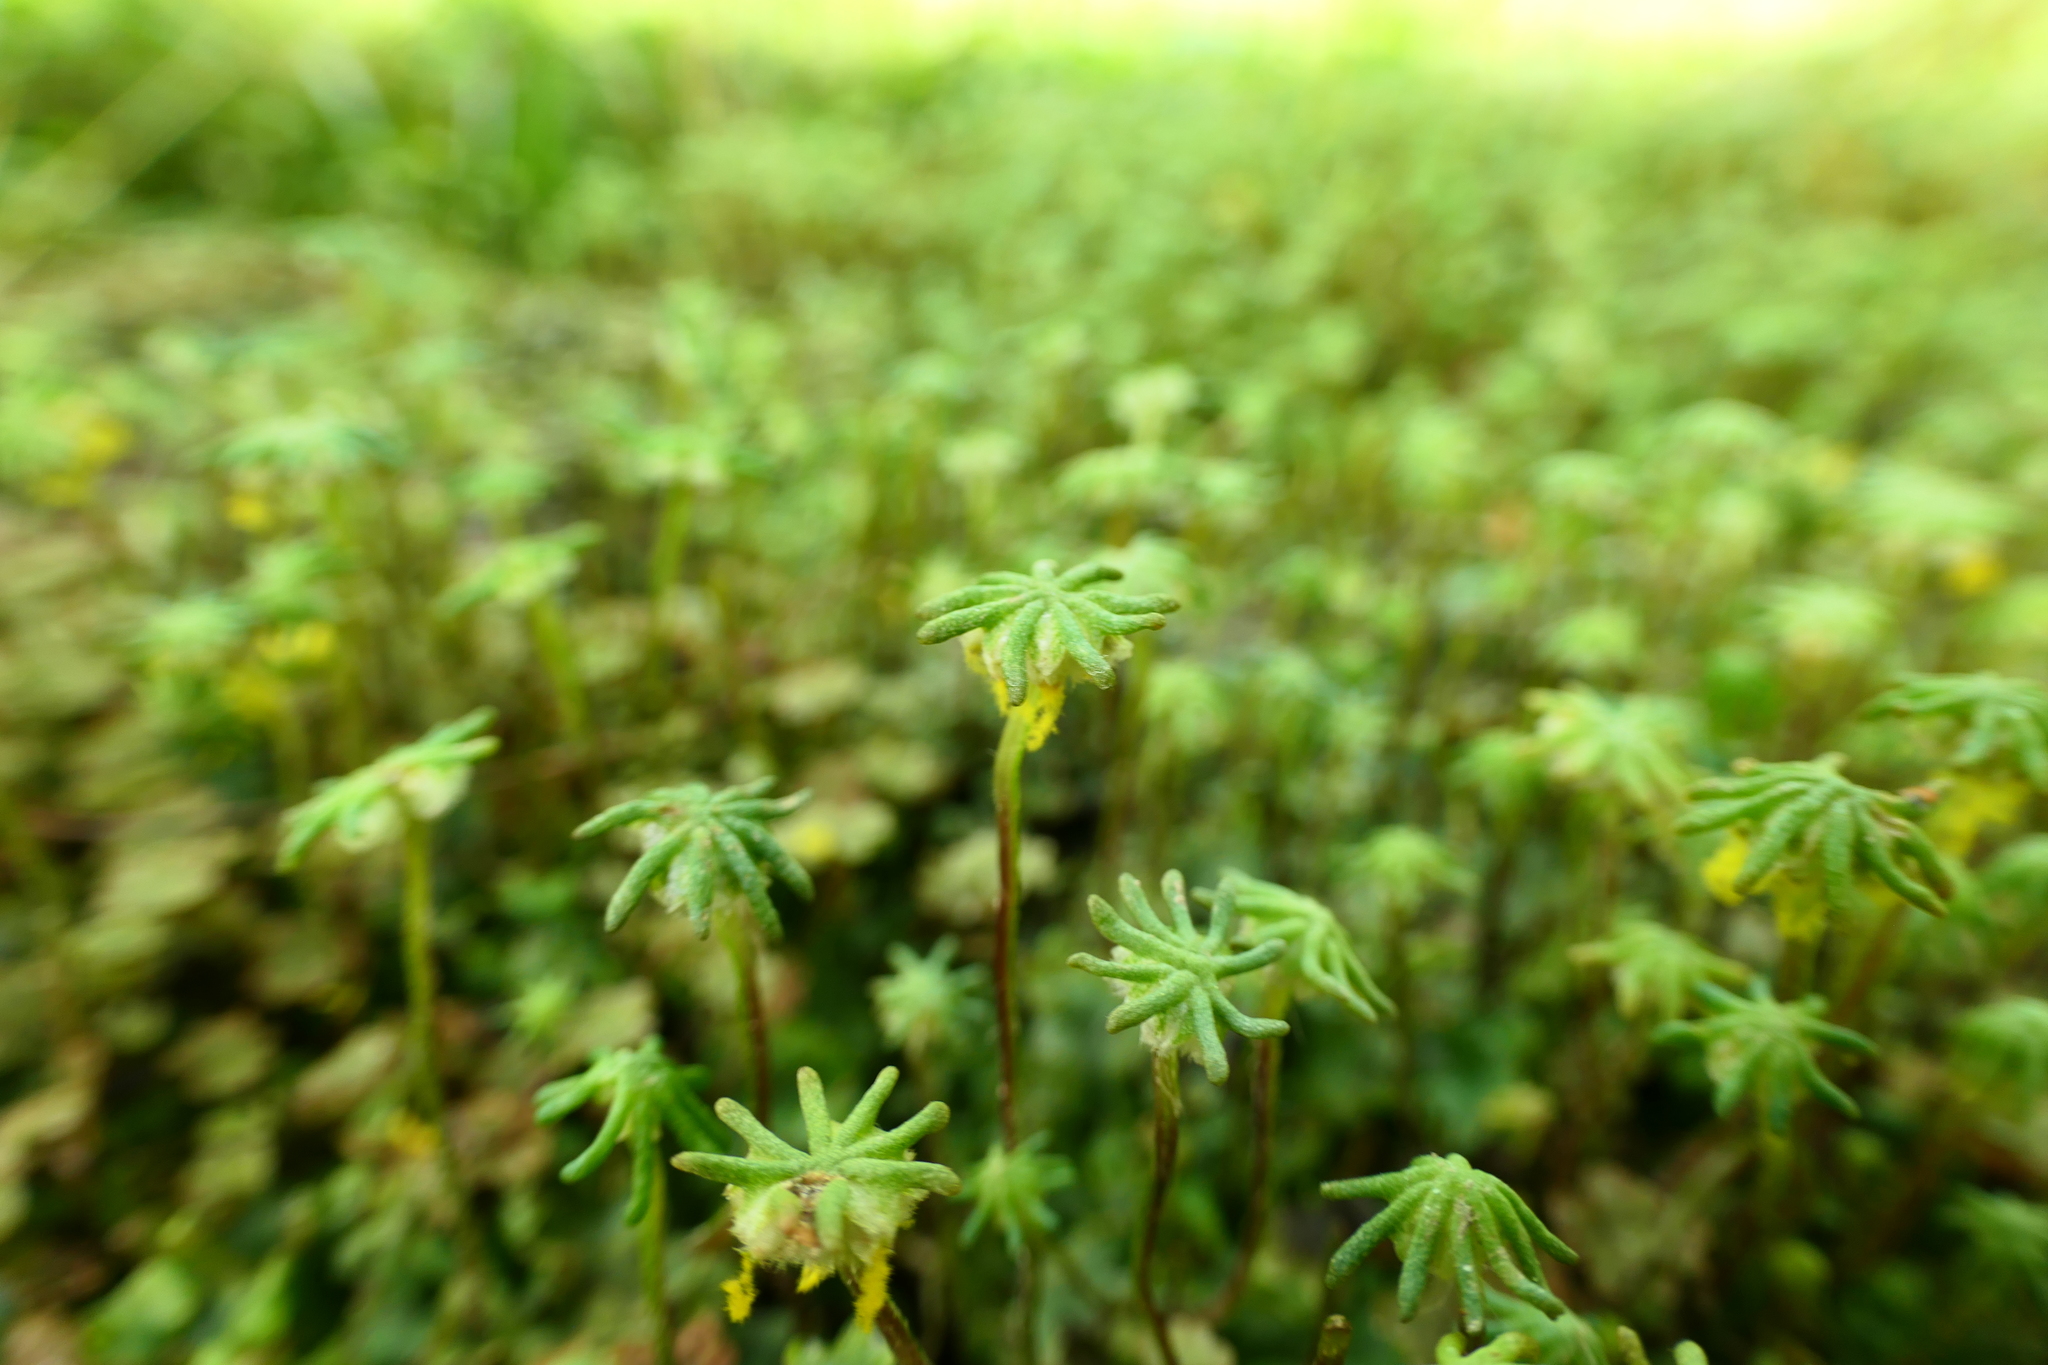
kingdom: Plantae
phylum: Marchantiophyta
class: Marchantiopsida
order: Marchantiales
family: Marchantiaceae
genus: Marchantia
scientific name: Marchantia polymorpha
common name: Common liverwort
